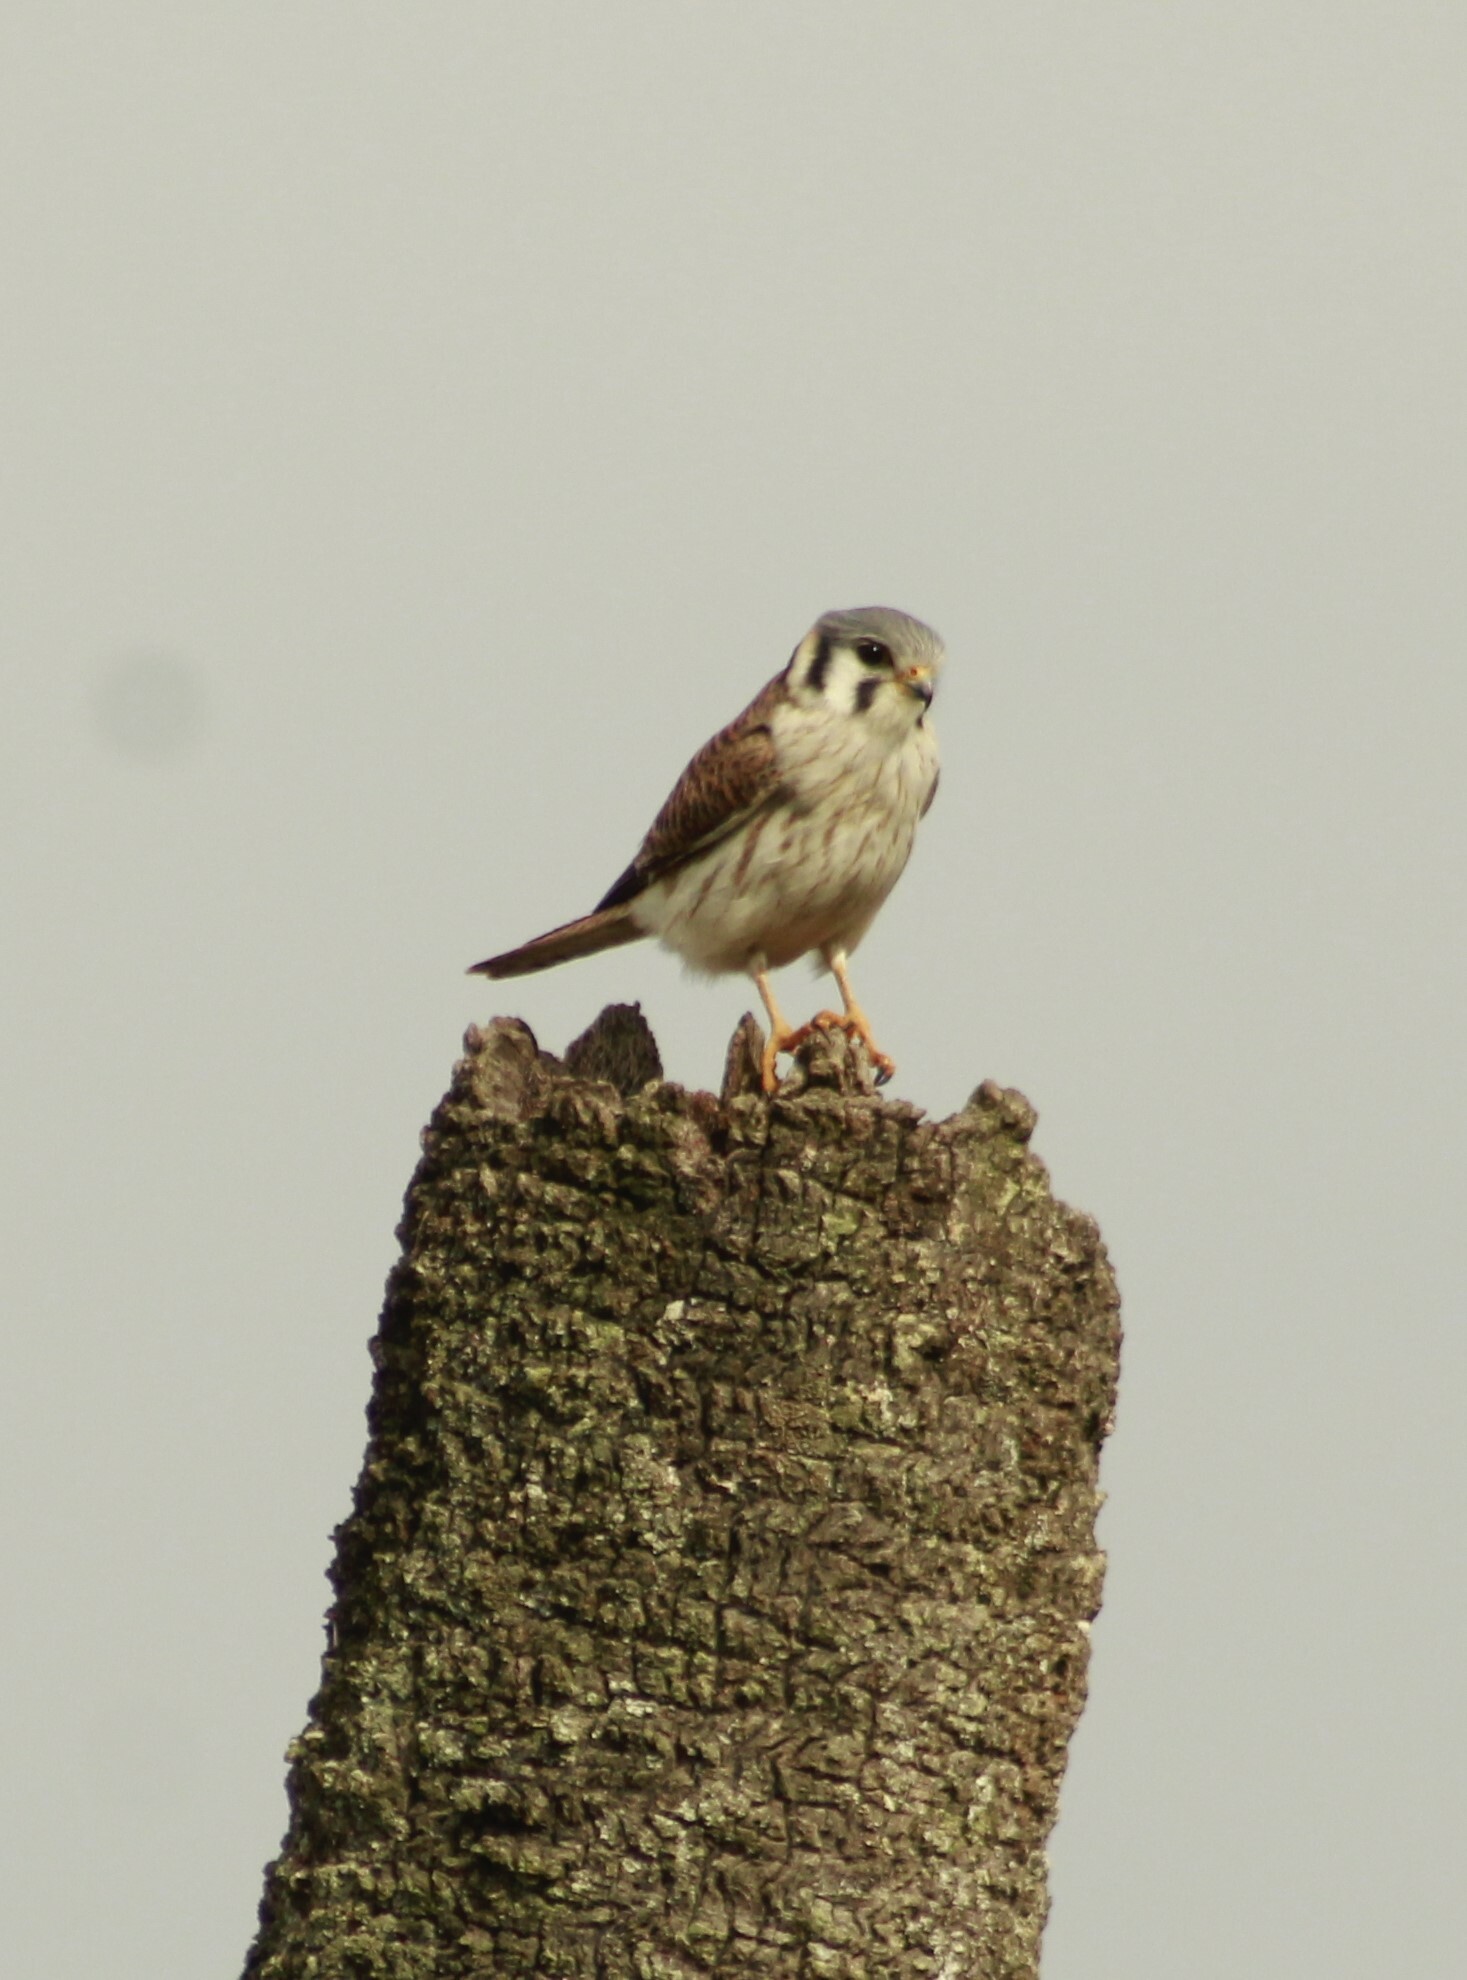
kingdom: Animalia
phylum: Chordata
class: Aves
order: Falconiformes
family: Falconidae
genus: Falco
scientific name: Falco sparverius
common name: American kestrel
